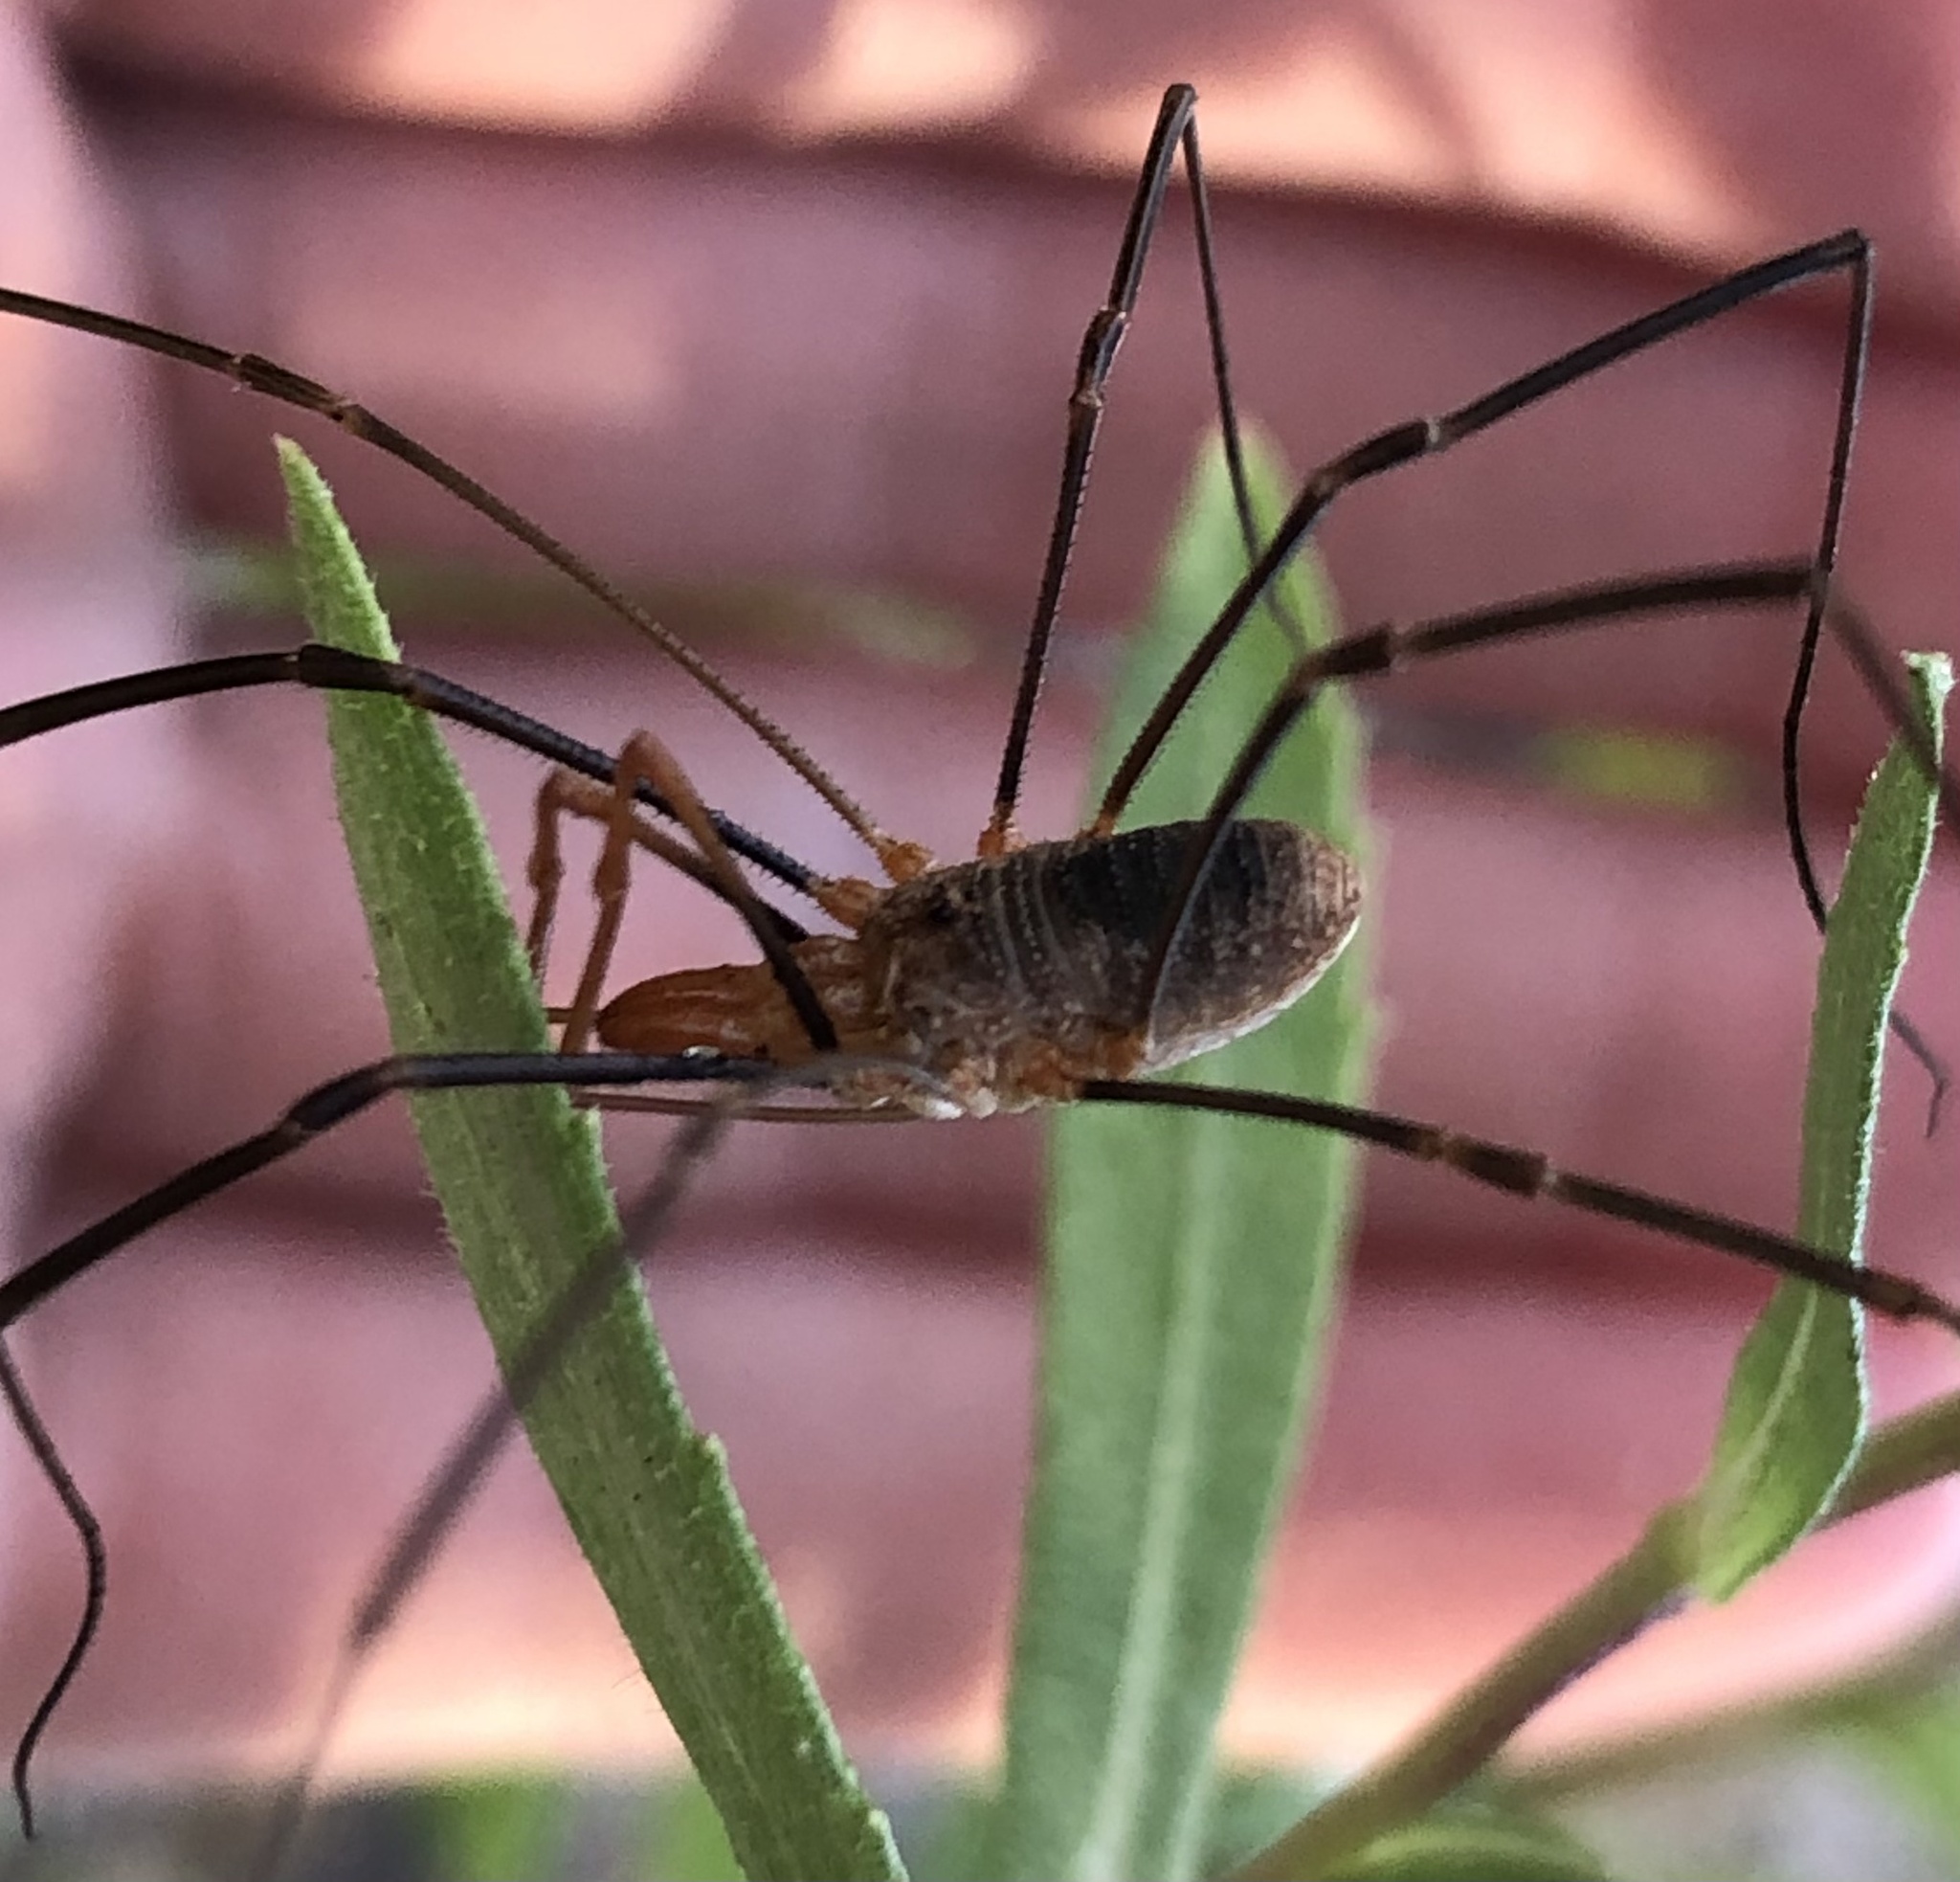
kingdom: Animalia
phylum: Arthropoda
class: Arachnida
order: Opiliones
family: Phalangiidae
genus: Phalangium
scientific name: Phalangium opilio
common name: Daddy longleg
